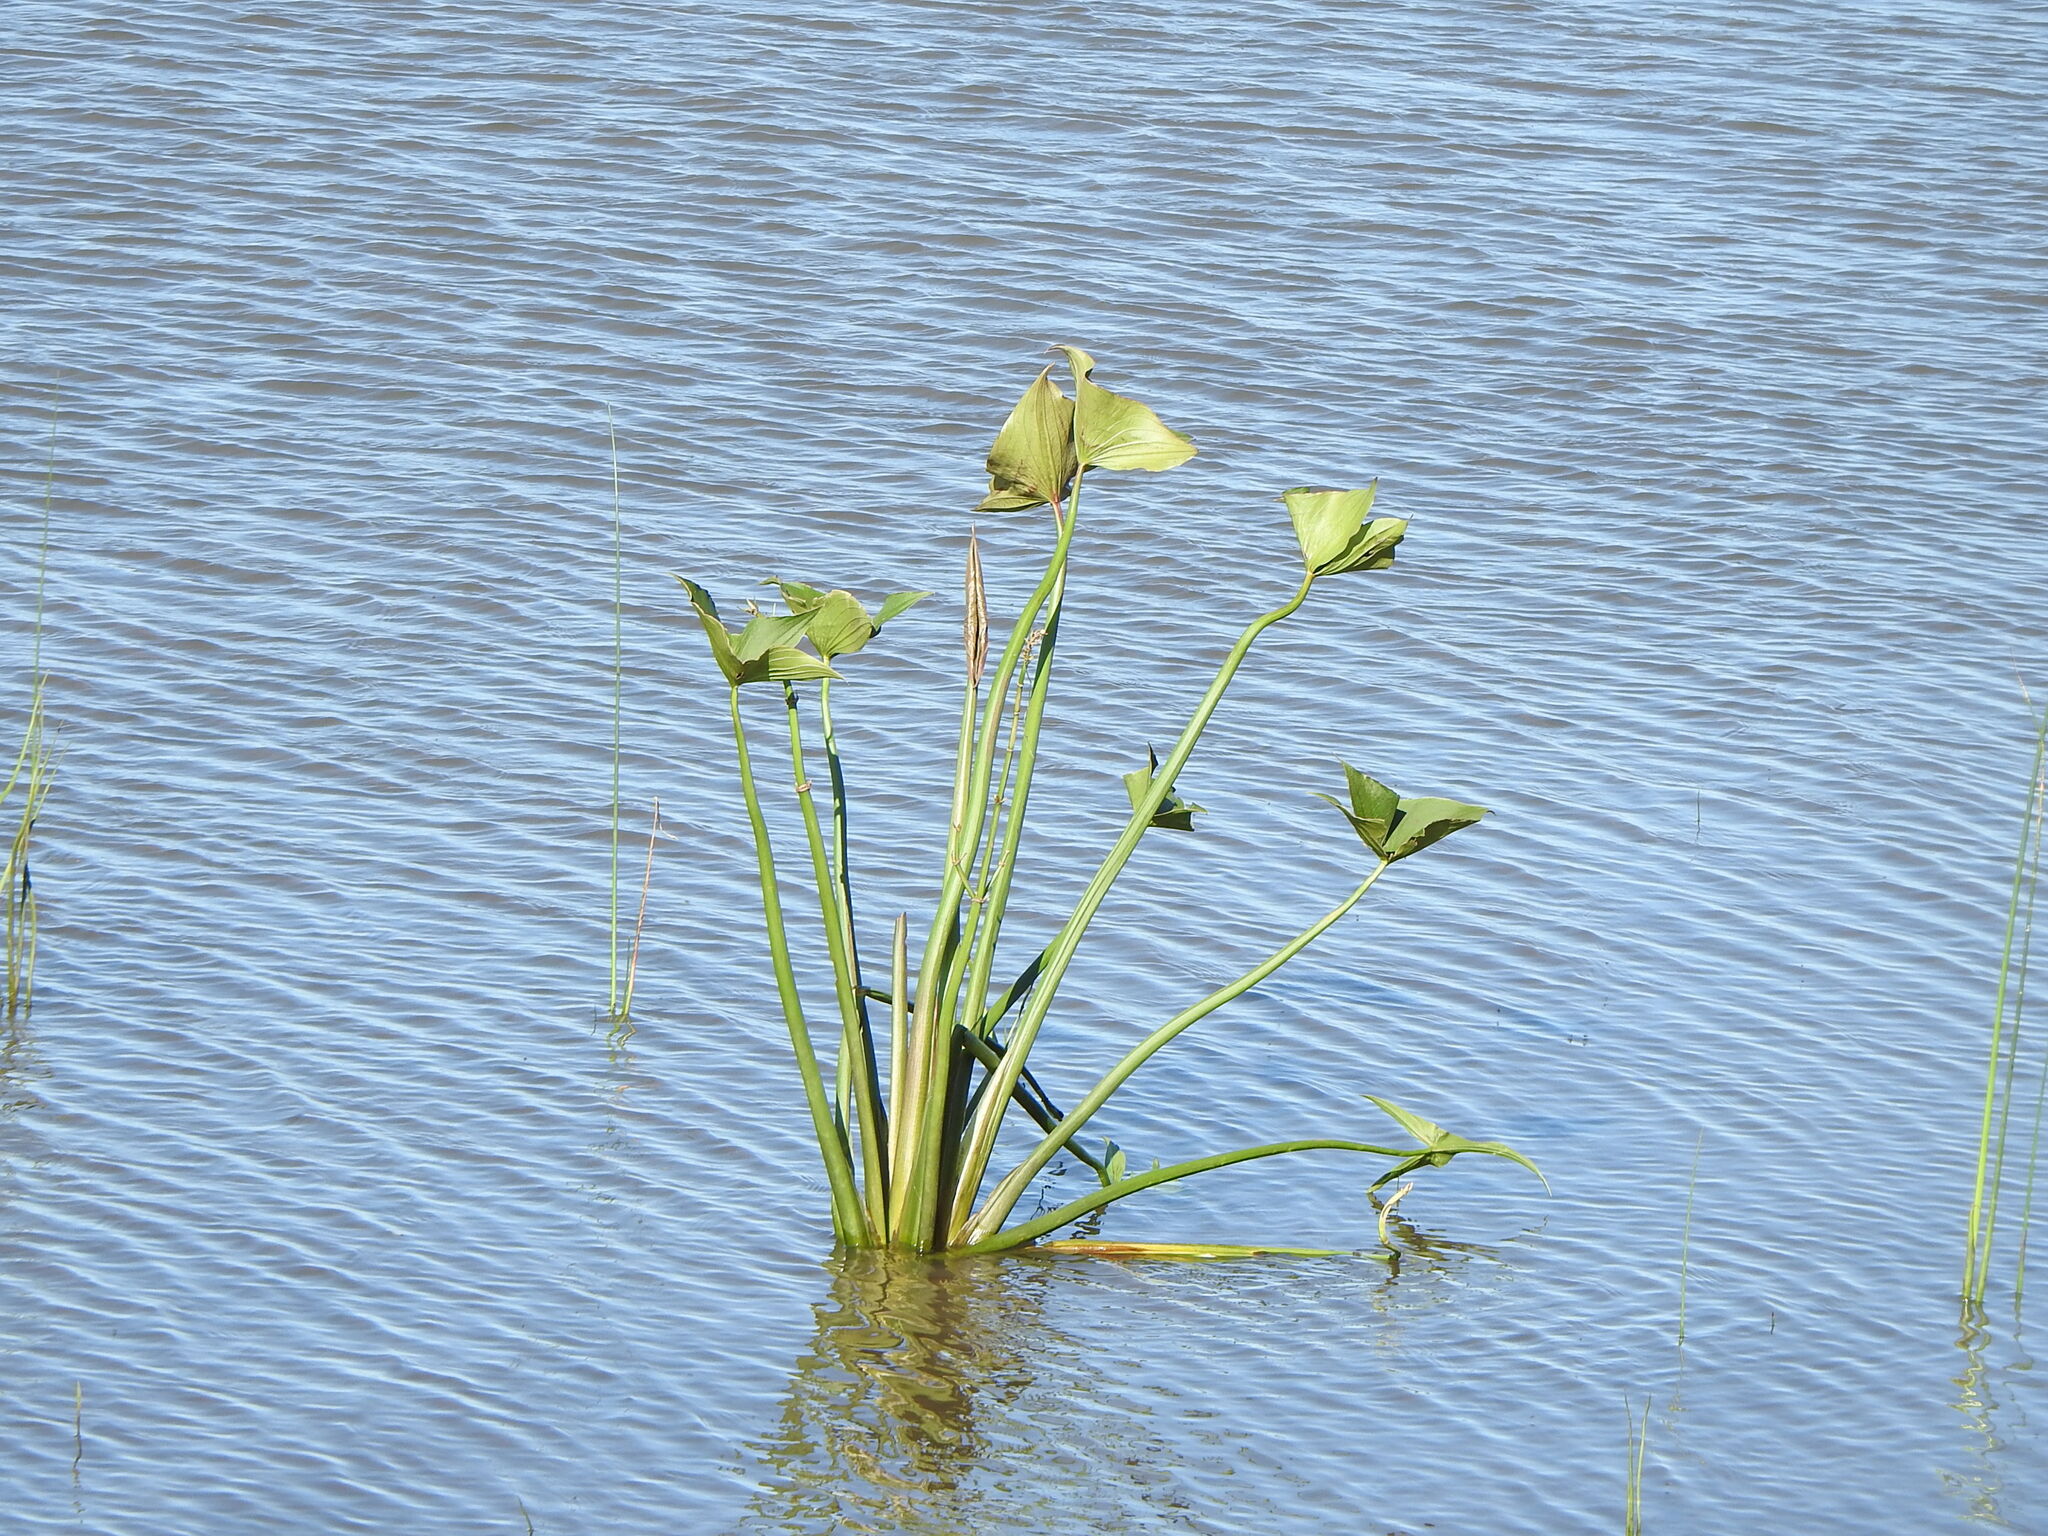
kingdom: Plantae
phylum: Tracheophyta
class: Liliopsida
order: Alismatales
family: Alismataceae
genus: Sagittaria
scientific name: Sagittaria montevidensis
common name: Giant arrowhead
